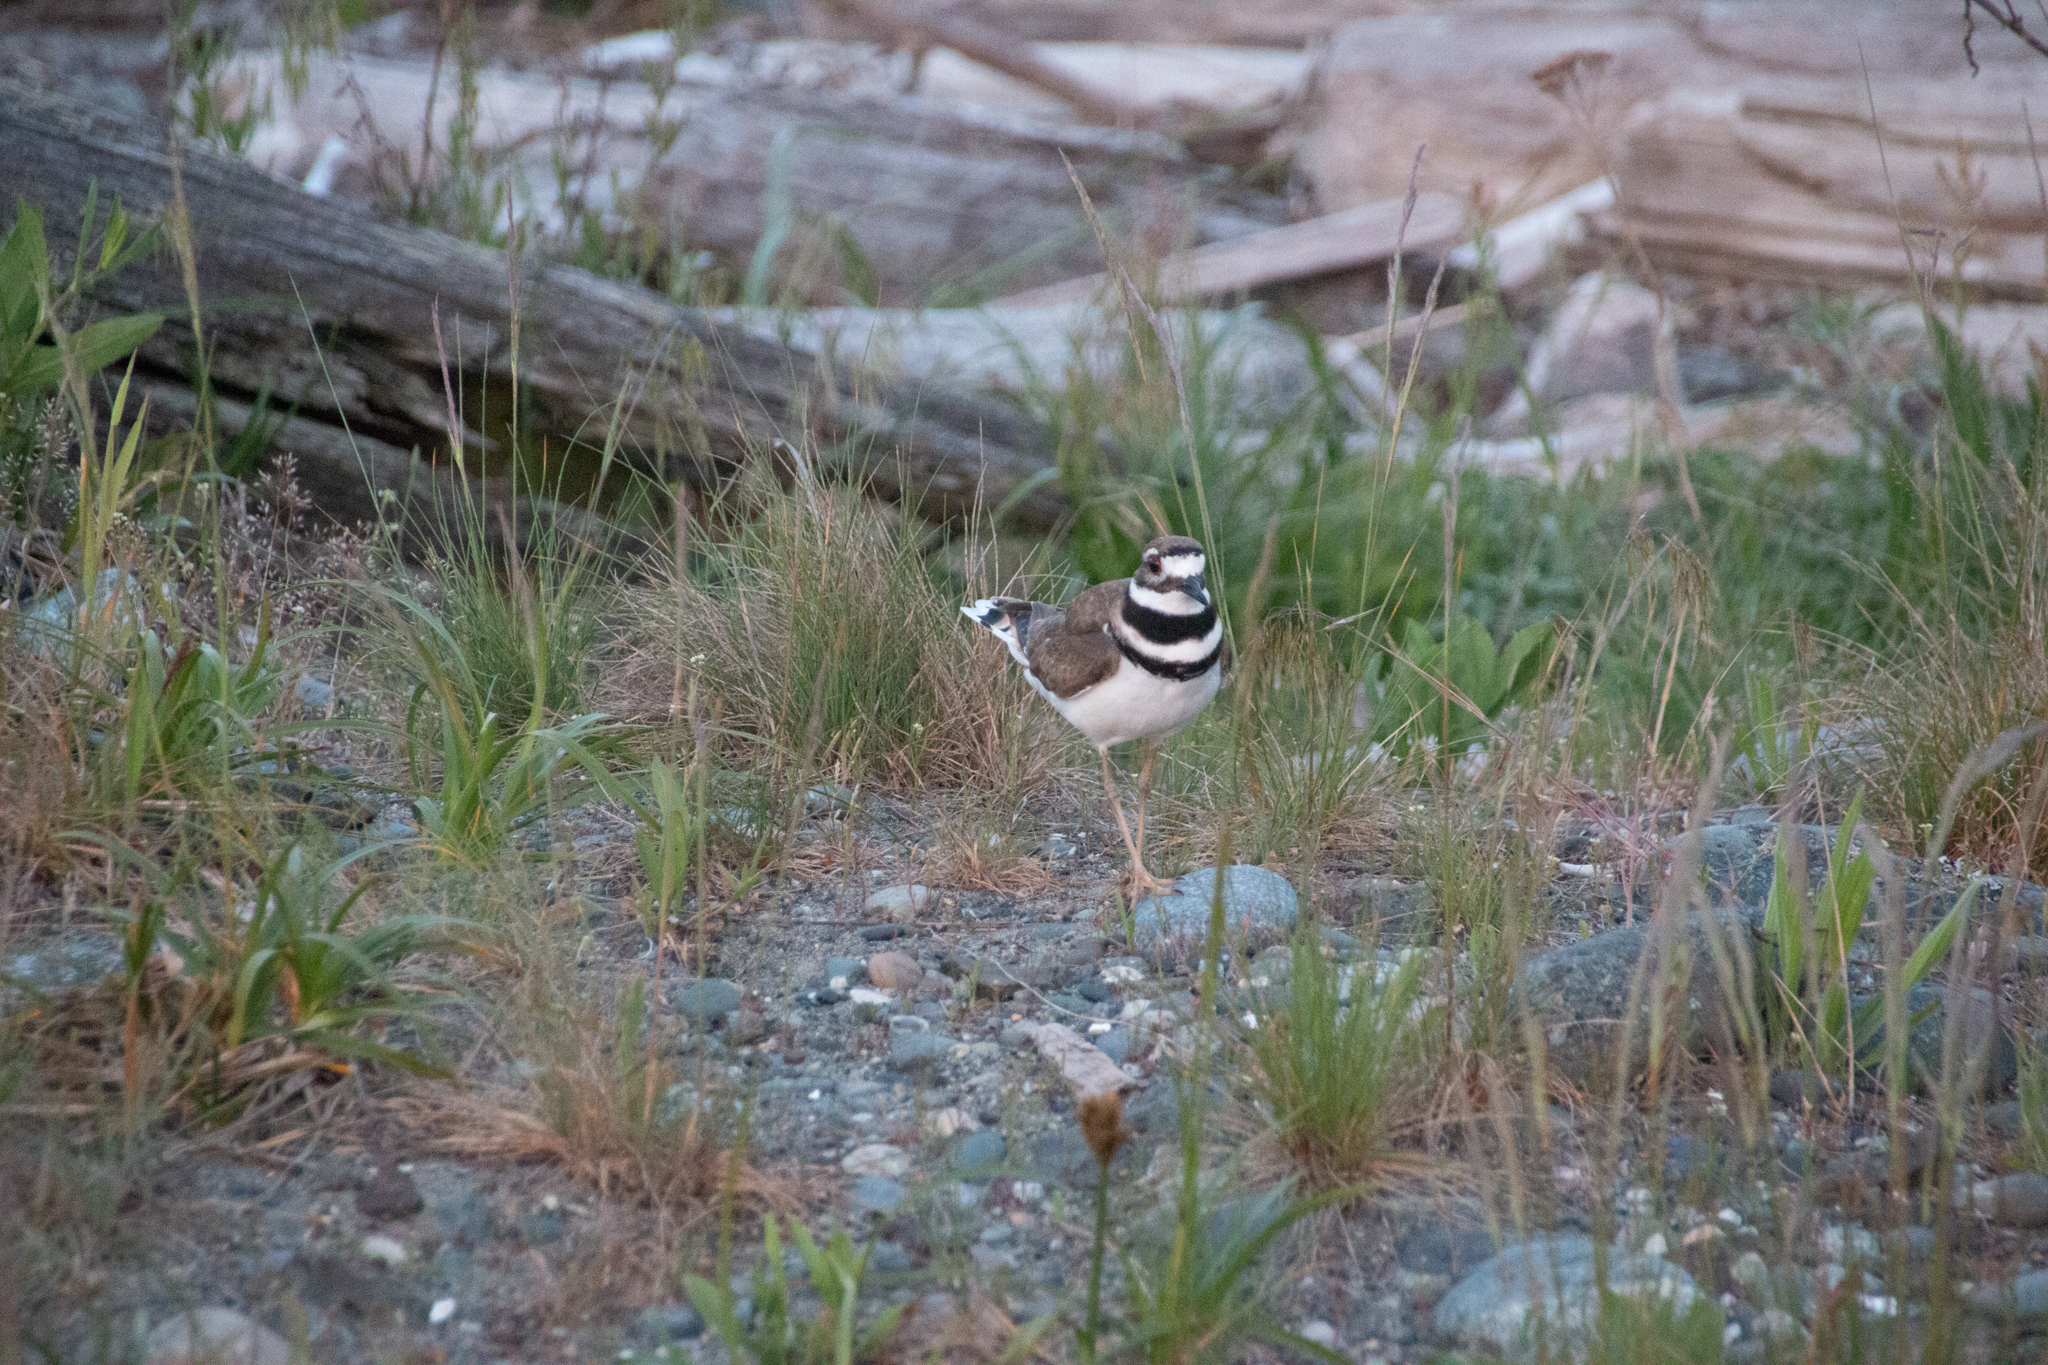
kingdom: Animalia
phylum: Chordata
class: Aves
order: Charadriiformes
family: Charadriidae
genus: Charadrius
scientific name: Charadrius vociferus
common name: Killdeer
